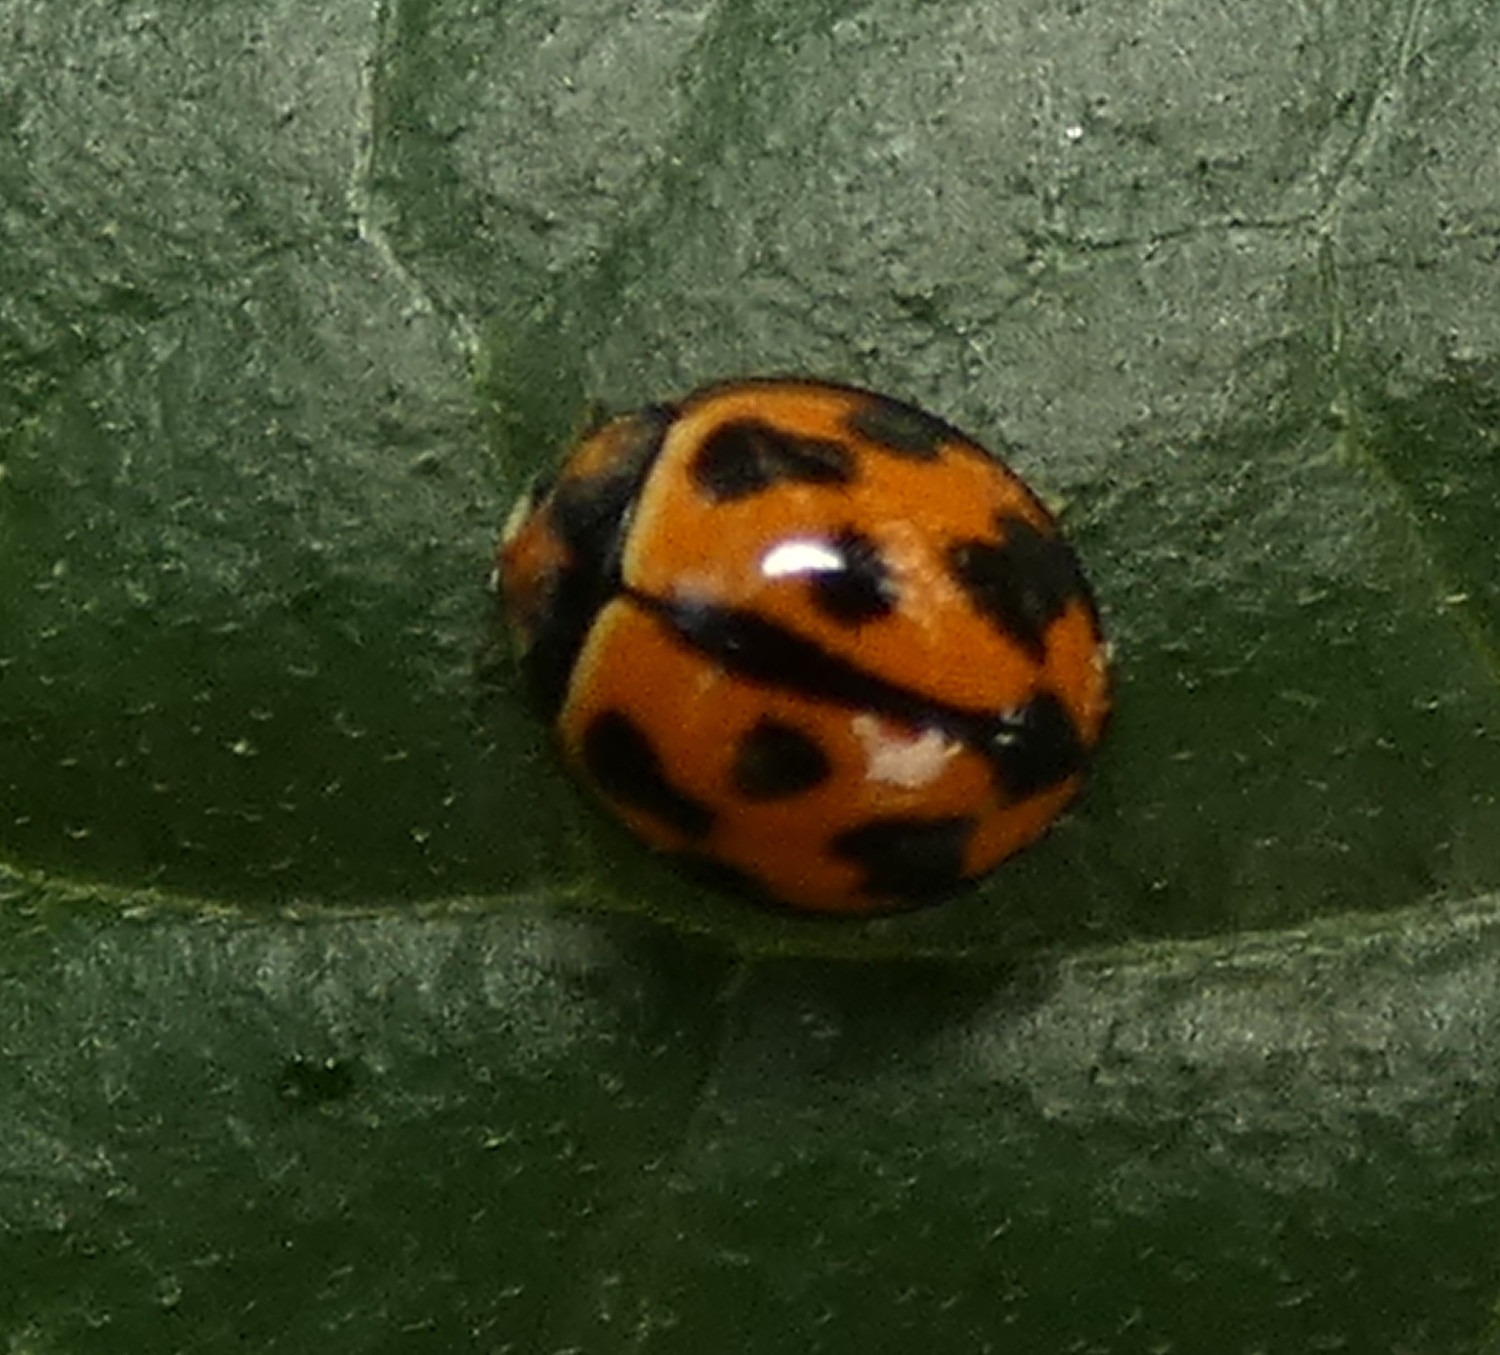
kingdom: Animalia
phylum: Arthropoda
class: Insecta
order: Coleoptera
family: Coccinellidae
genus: Coelophora
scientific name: Coelophora inaequalis
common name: Common australian lady beetle
